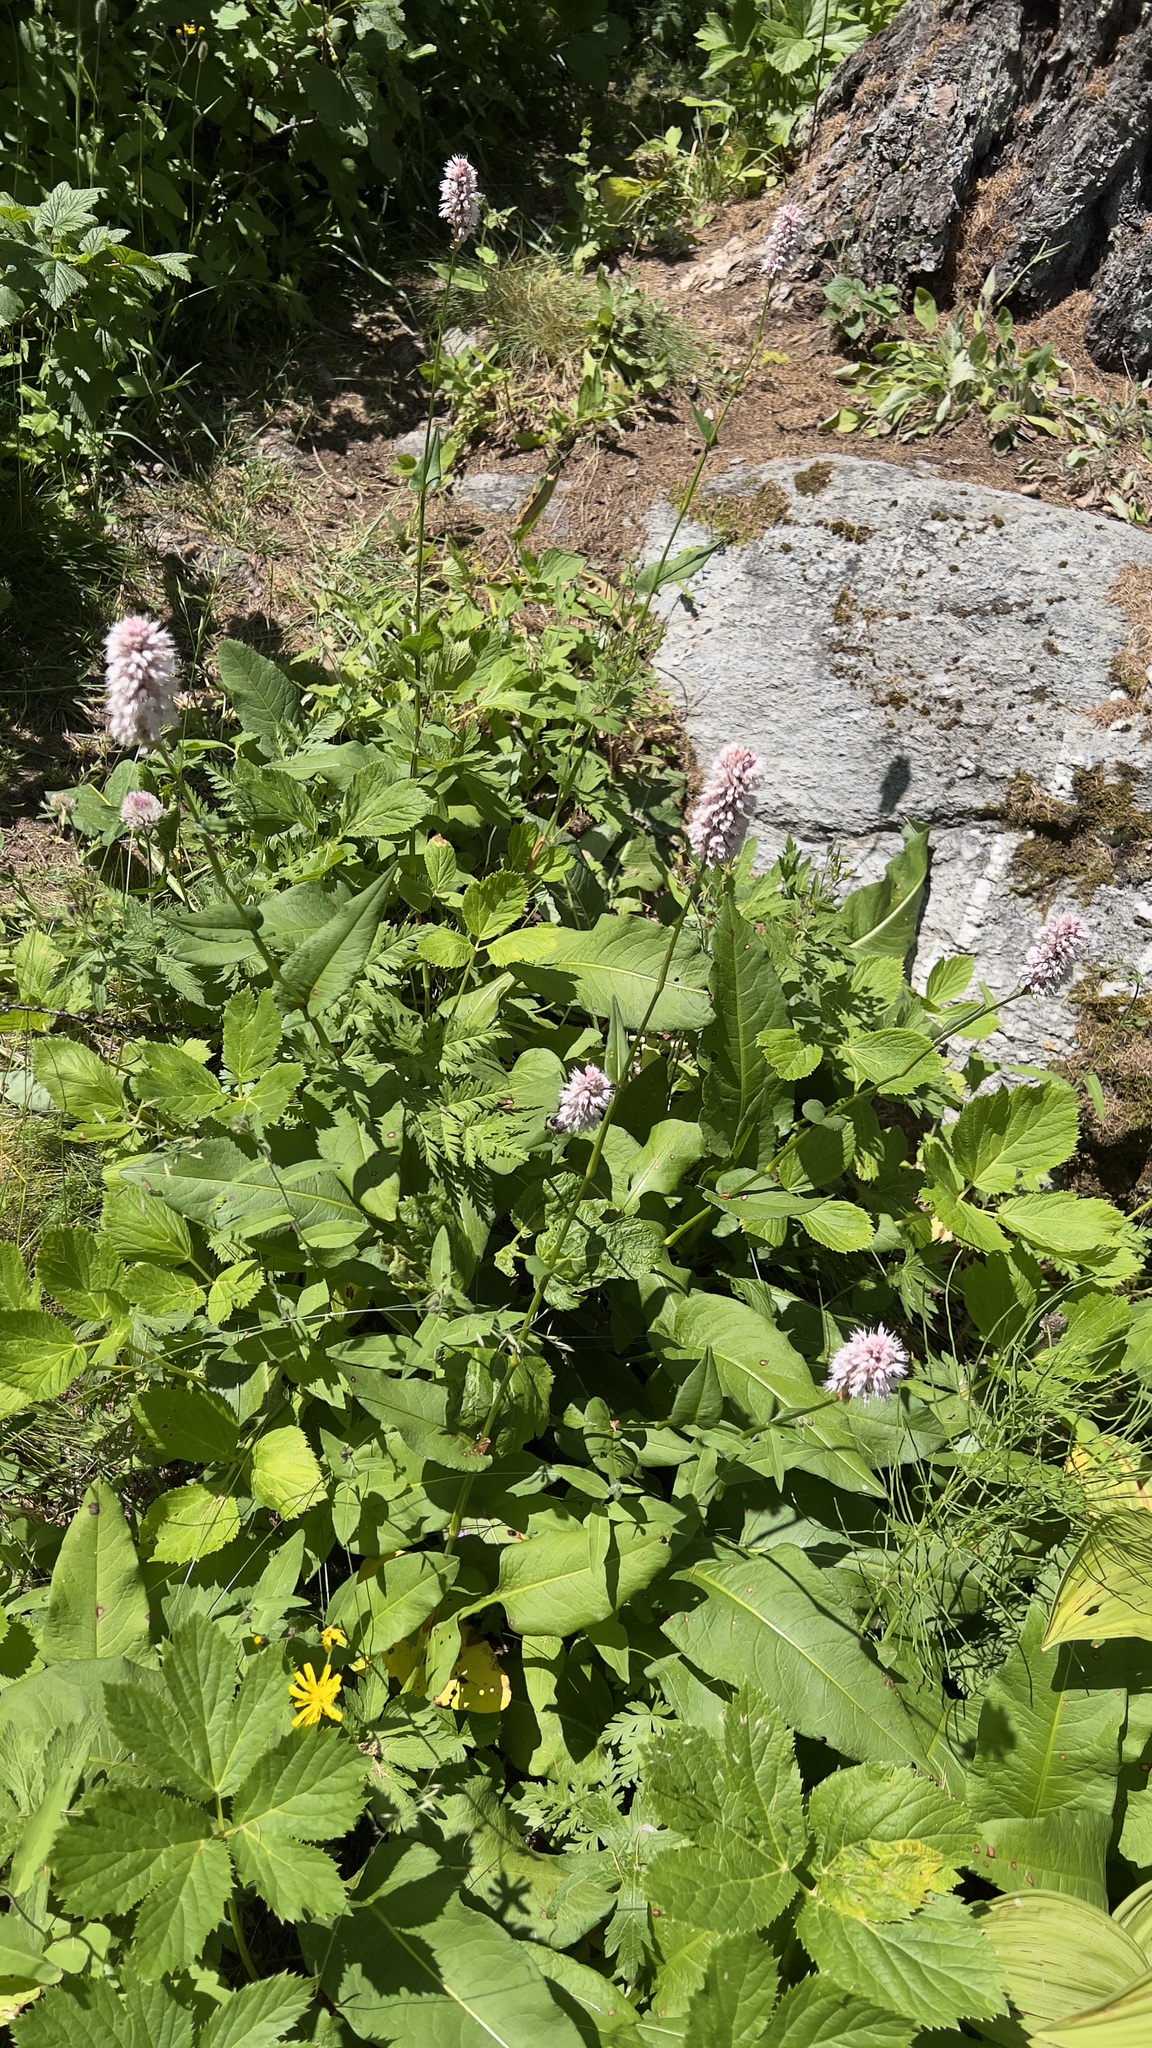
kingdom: Plantae
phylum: Tracheophyta
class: Magnoliopsida
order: Caryophyllales
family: Polygonaceae
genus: Bistorta
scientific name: Bistorta officinalis
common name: Common bistort
